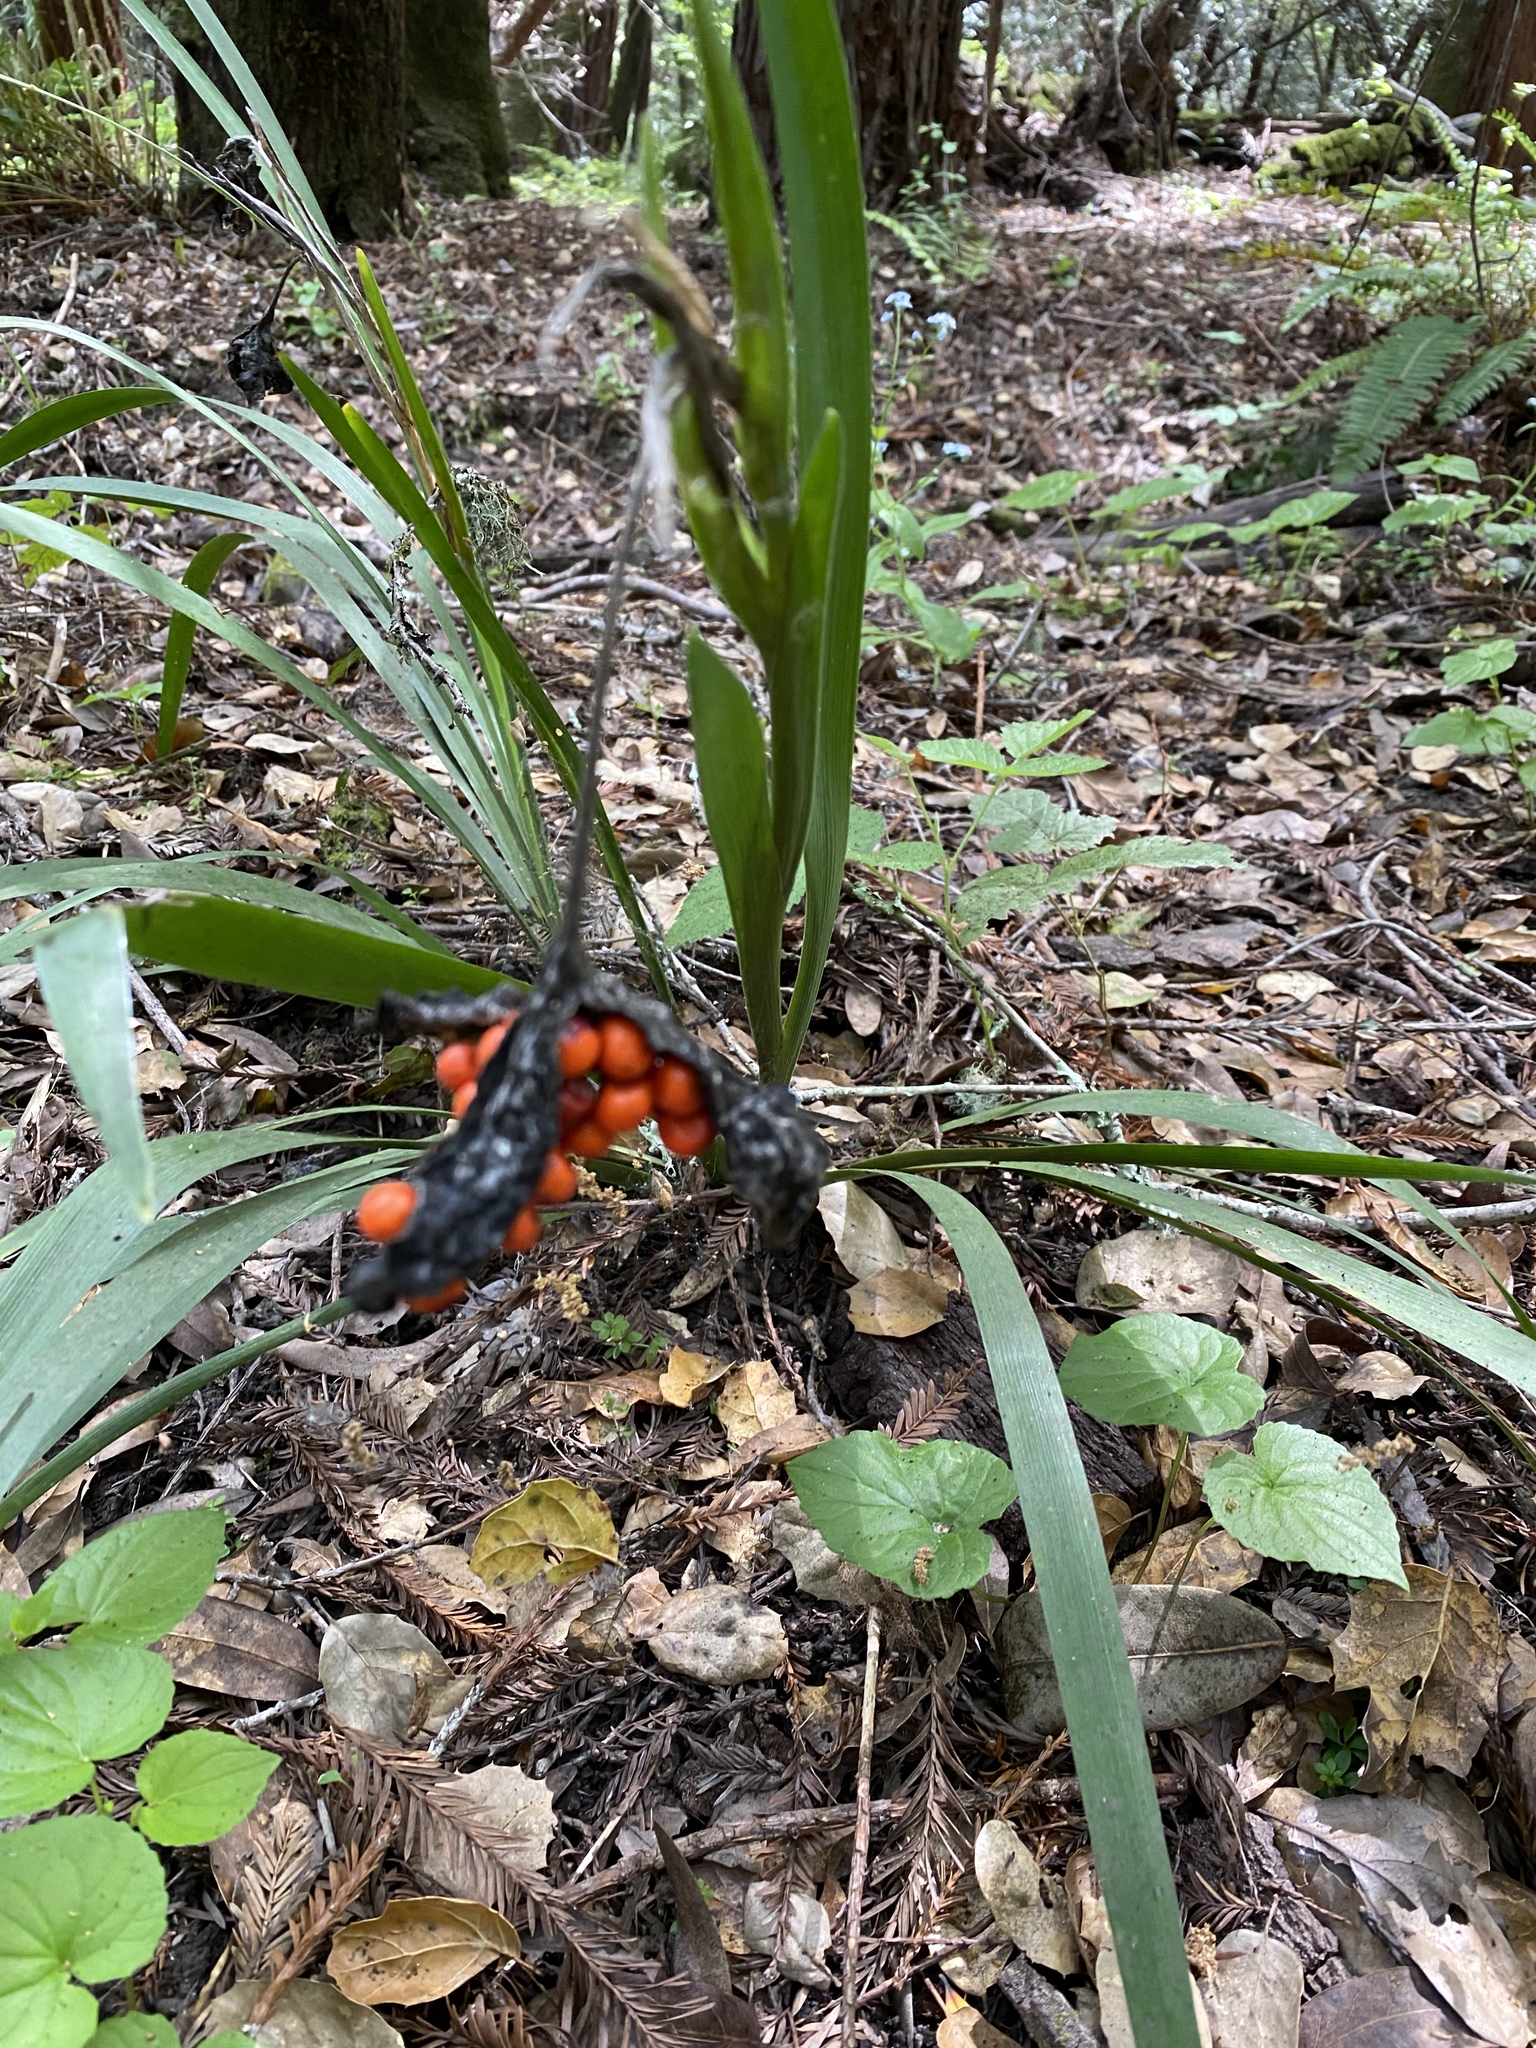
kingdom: Plantae
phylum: Tracheophyta
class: Liliopsida
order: Asparagales
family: Iridaceae
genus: Iris
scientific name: Iris foetidissima
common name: Stinking iris
